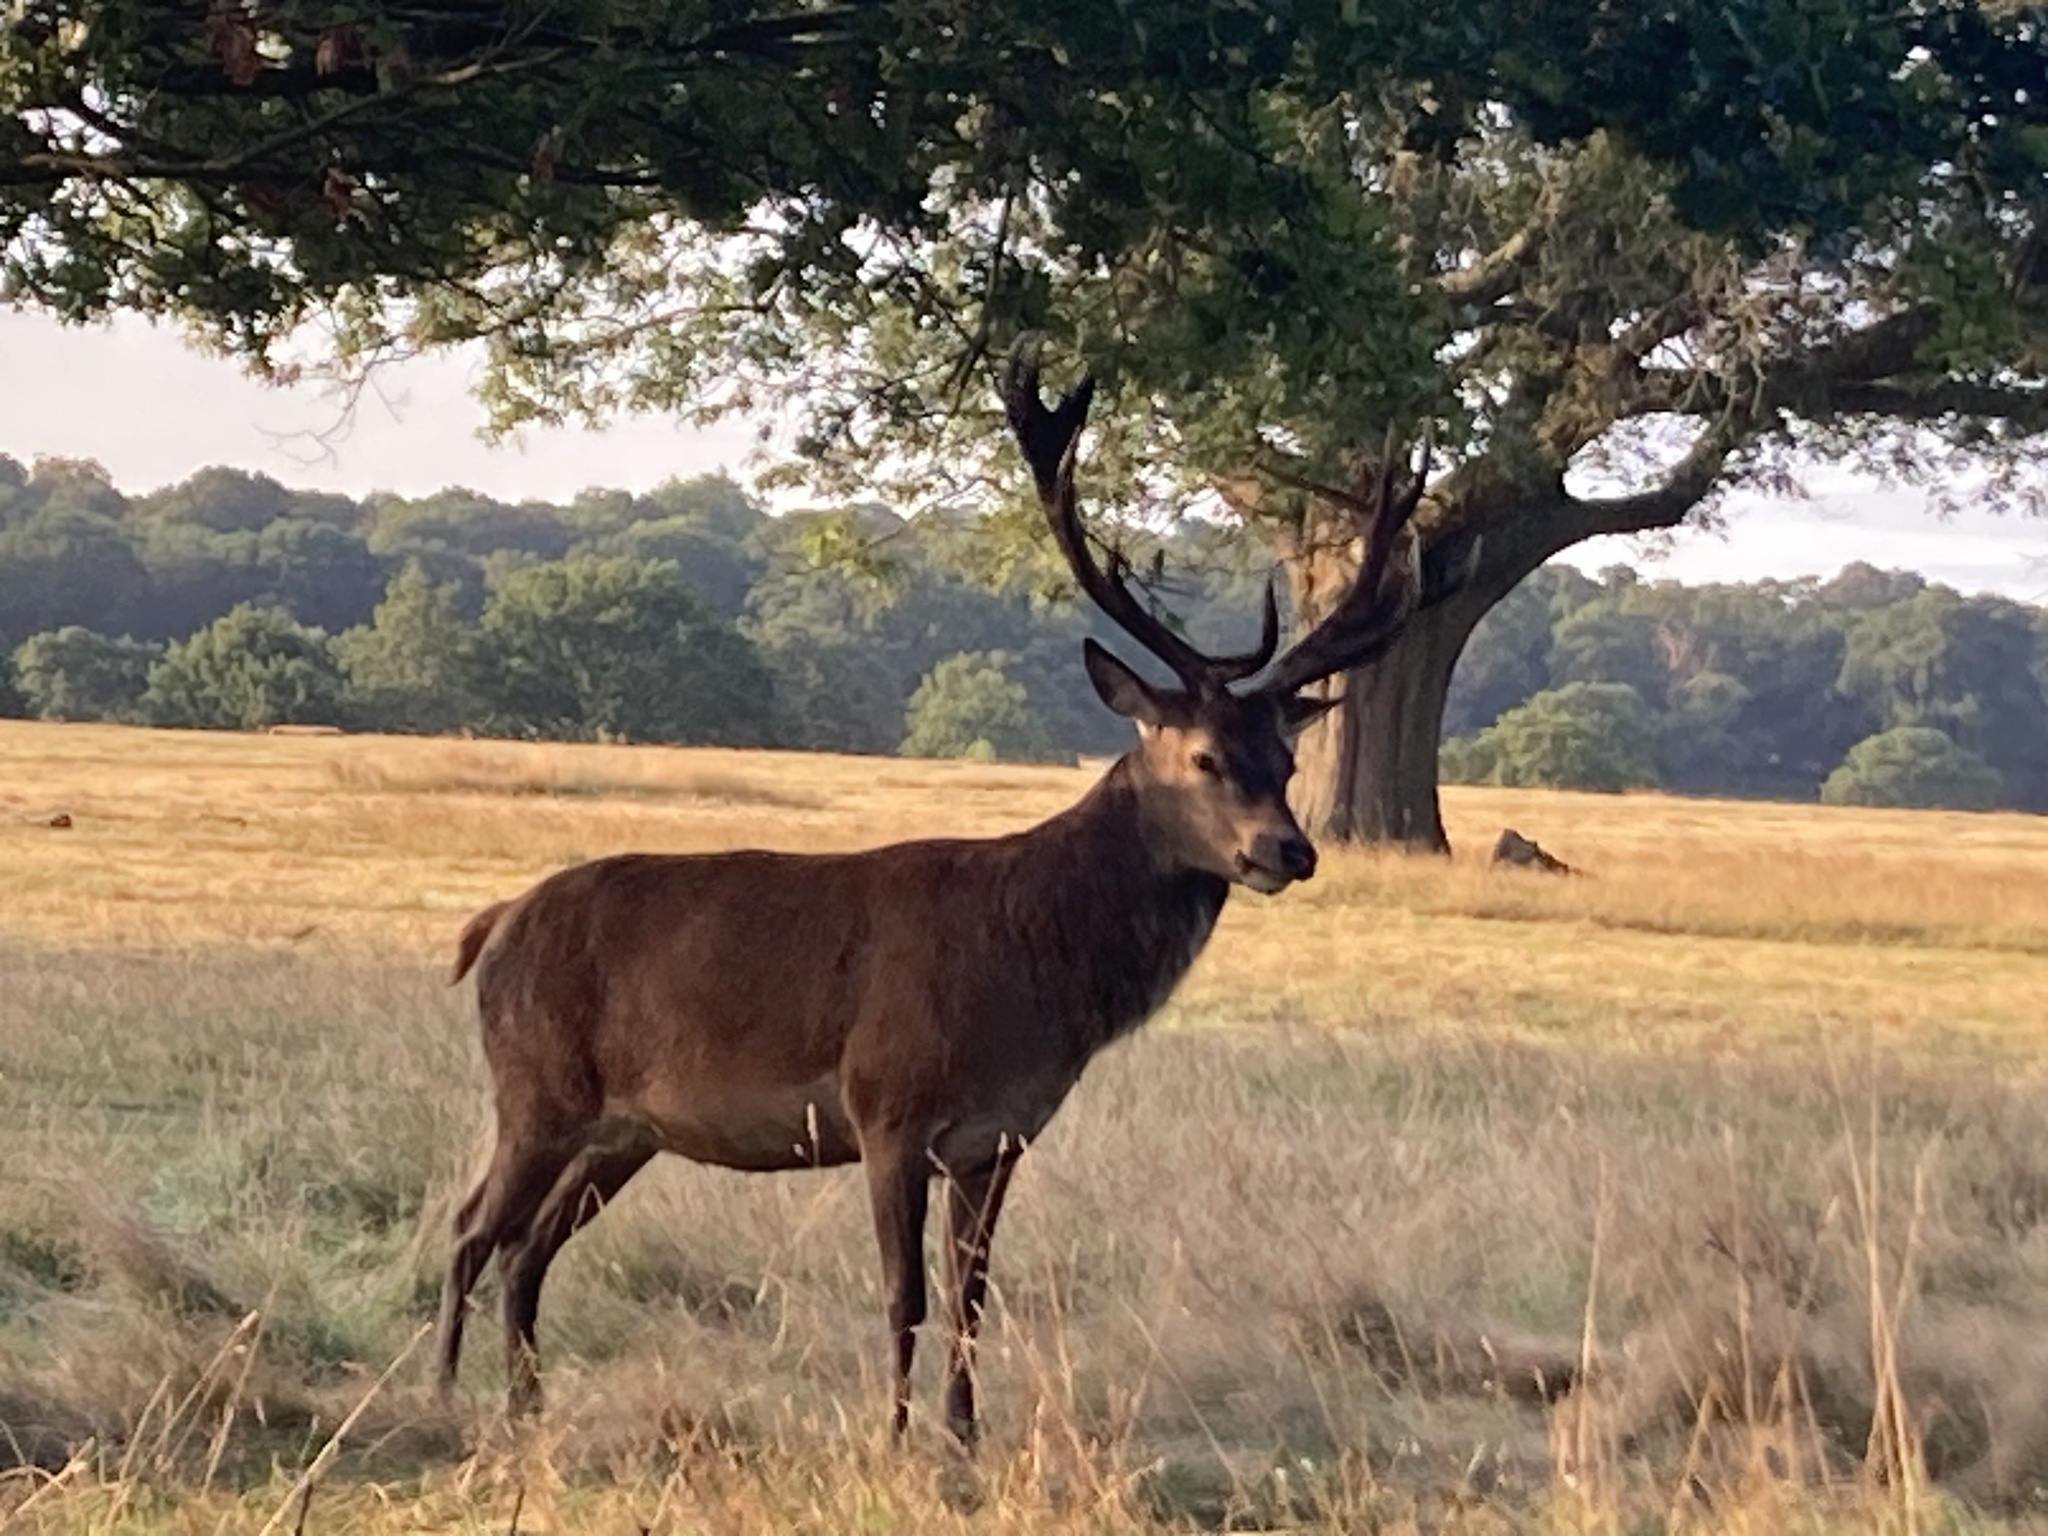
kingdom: Animalia
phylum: Chordata
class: Mammalia
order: Artiodactyla
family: Cervidae
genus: Cervus
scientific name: Cervus elaphus
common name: Red deer
